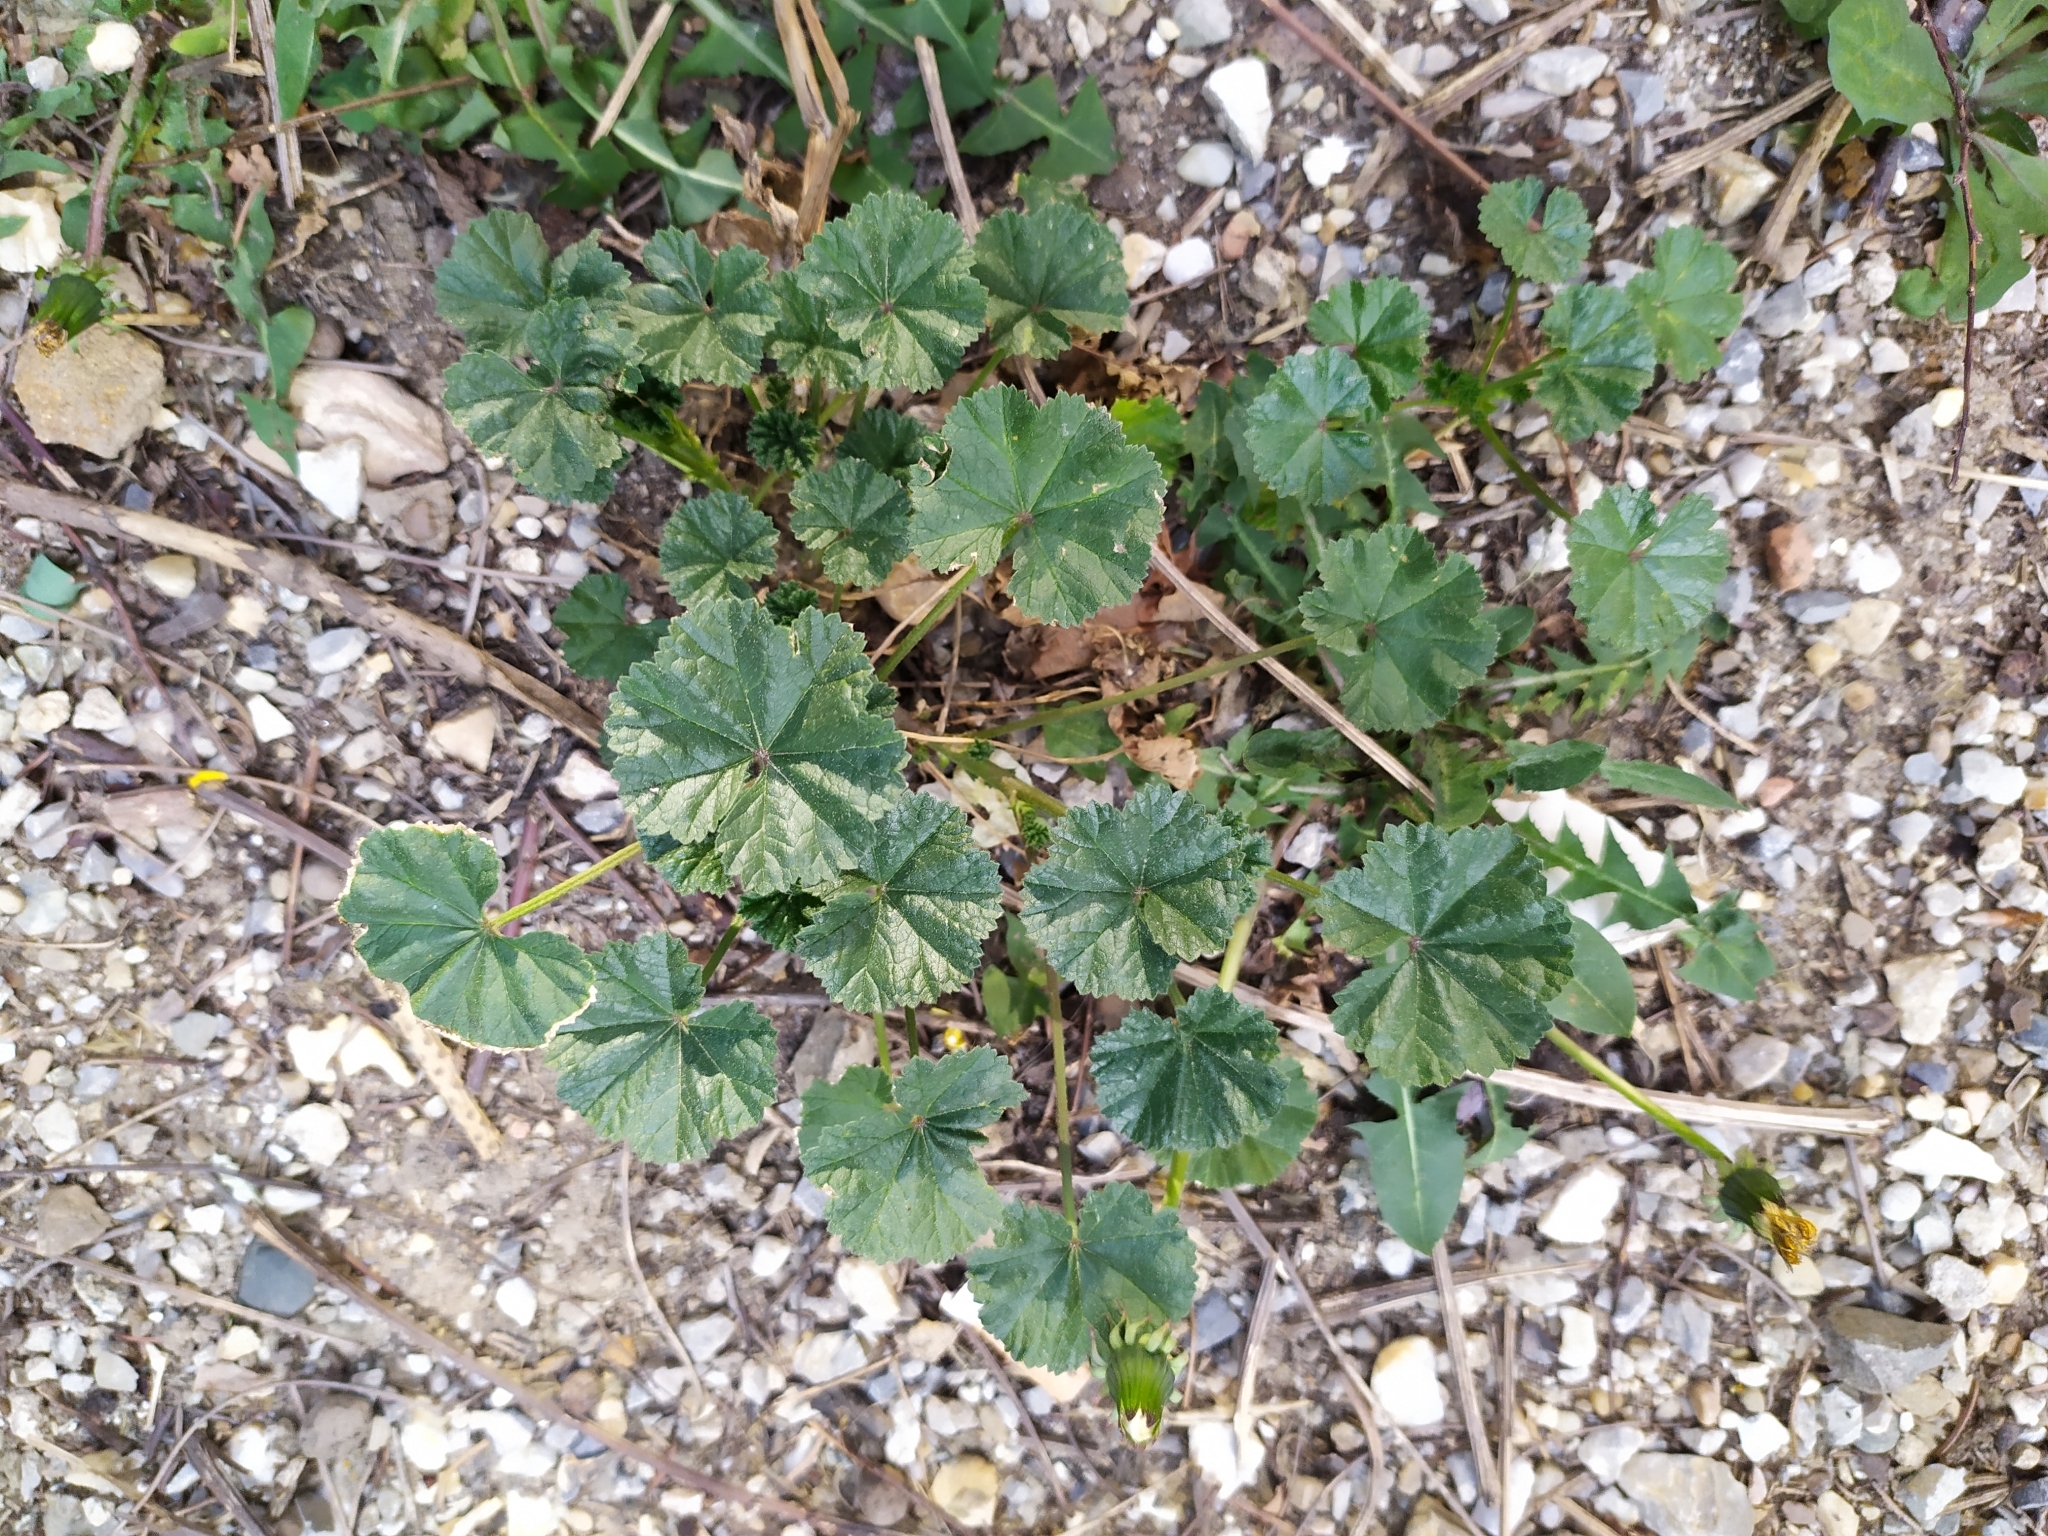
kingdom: Plantae
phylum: Tracheophyta
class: Magnoliopsida
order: Malvales
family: Malvaceae
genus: Malva
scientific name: Malva neglecta
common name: Common mallow
